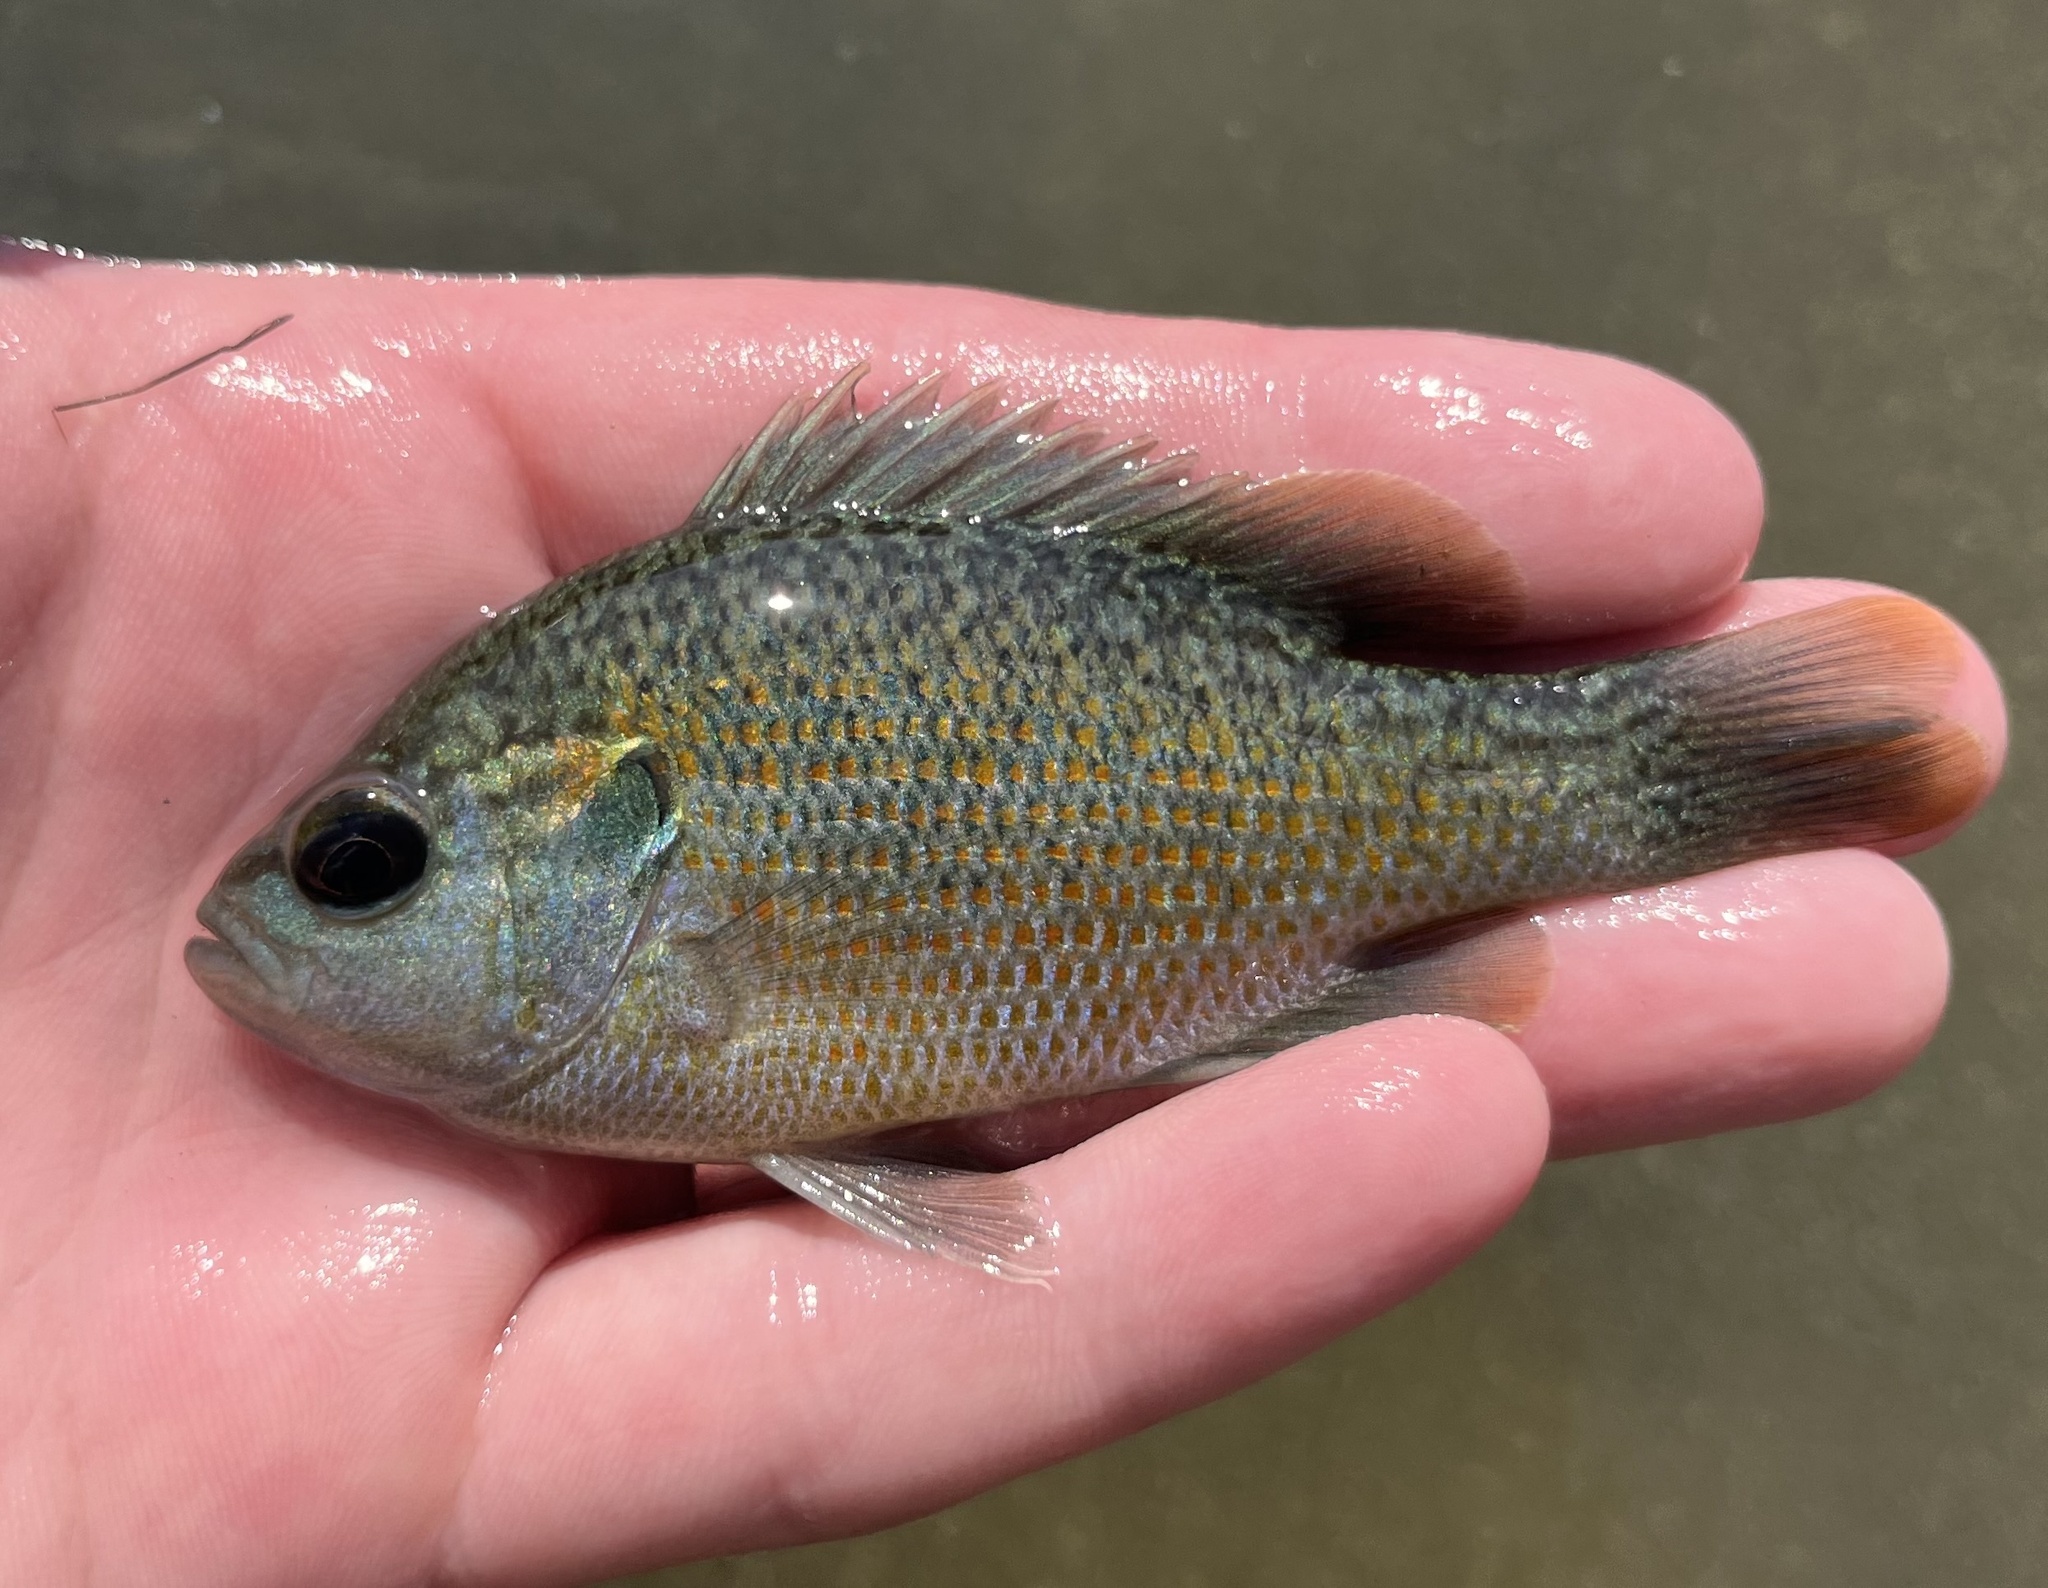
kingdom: Animalia
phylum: Chordata
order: Perciformes
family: Centrarchidae
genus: Lepomis
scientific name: Lepomis miniatus
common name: Redspotted sunfish
